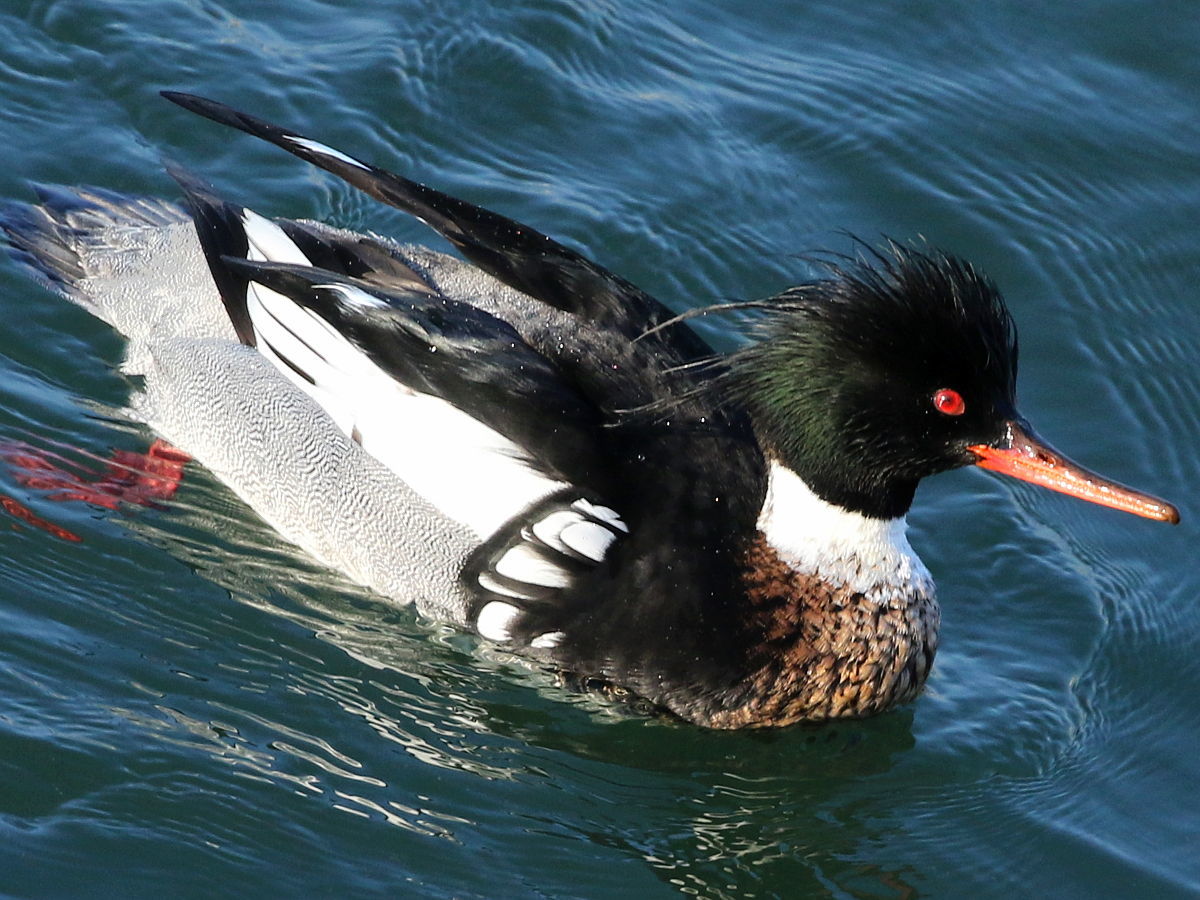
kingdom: Animalia
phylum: Chordata
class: Aves
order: Anseriformes
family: Anatidae
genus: Mergus
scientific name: Mergus serrator
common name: Red-breasted merganser
